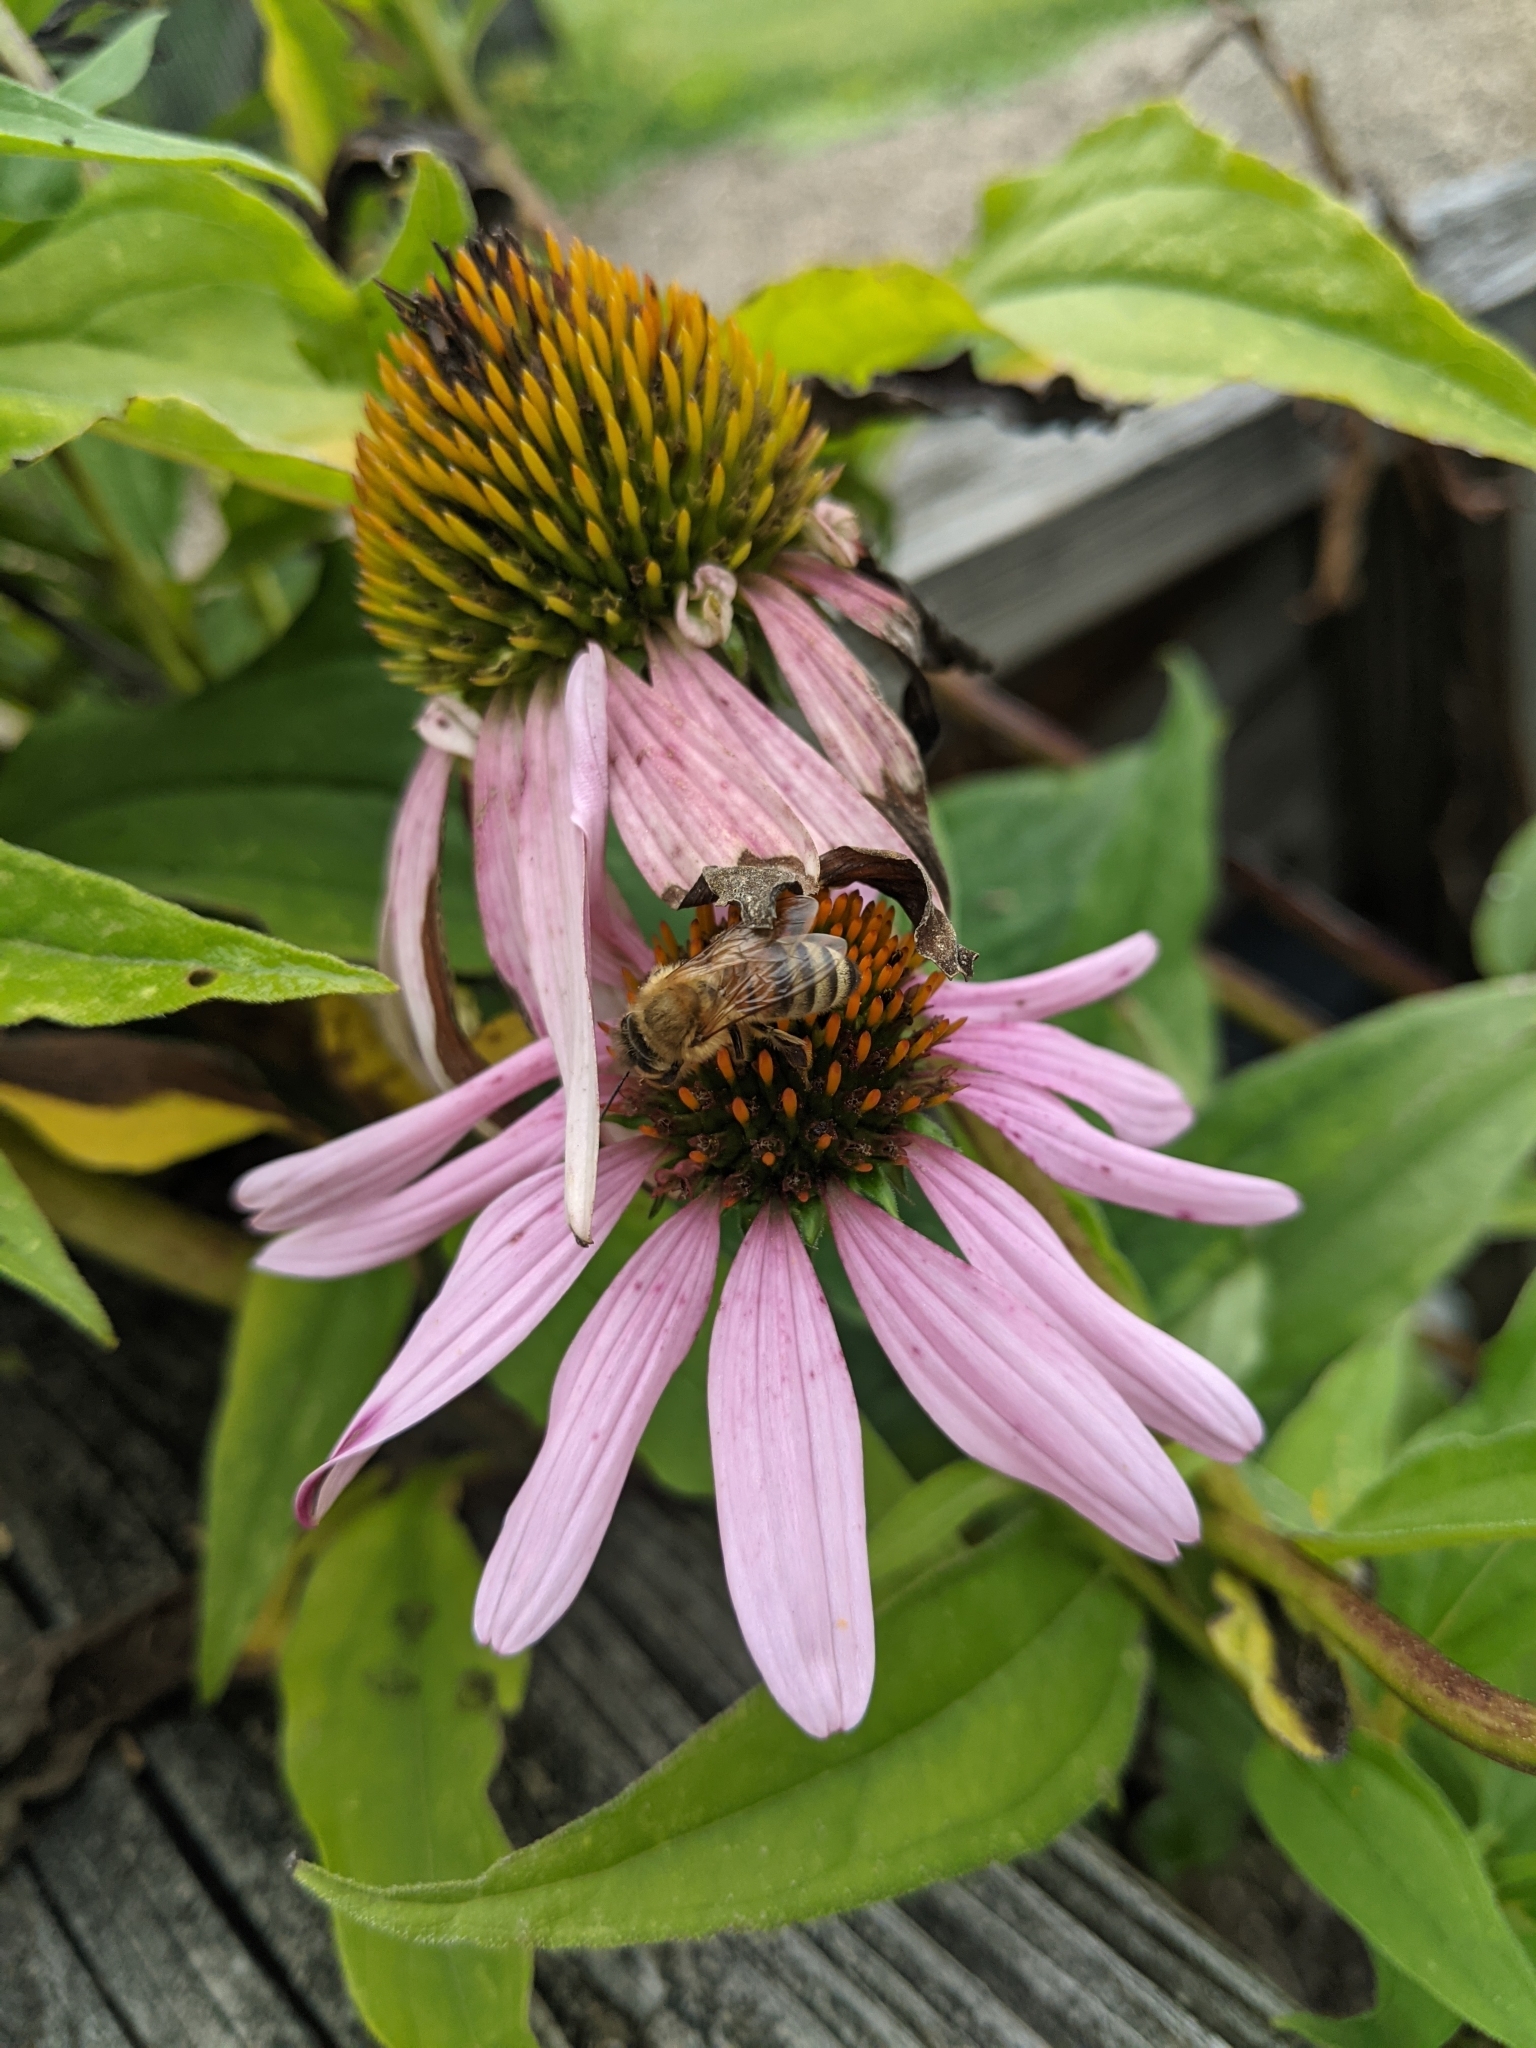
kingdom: Animalia
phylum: Arthropoda
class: Insecta
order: Hymenoptera
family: Apidae
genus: Apis
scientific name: Apis mellifera
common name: Honey bee
